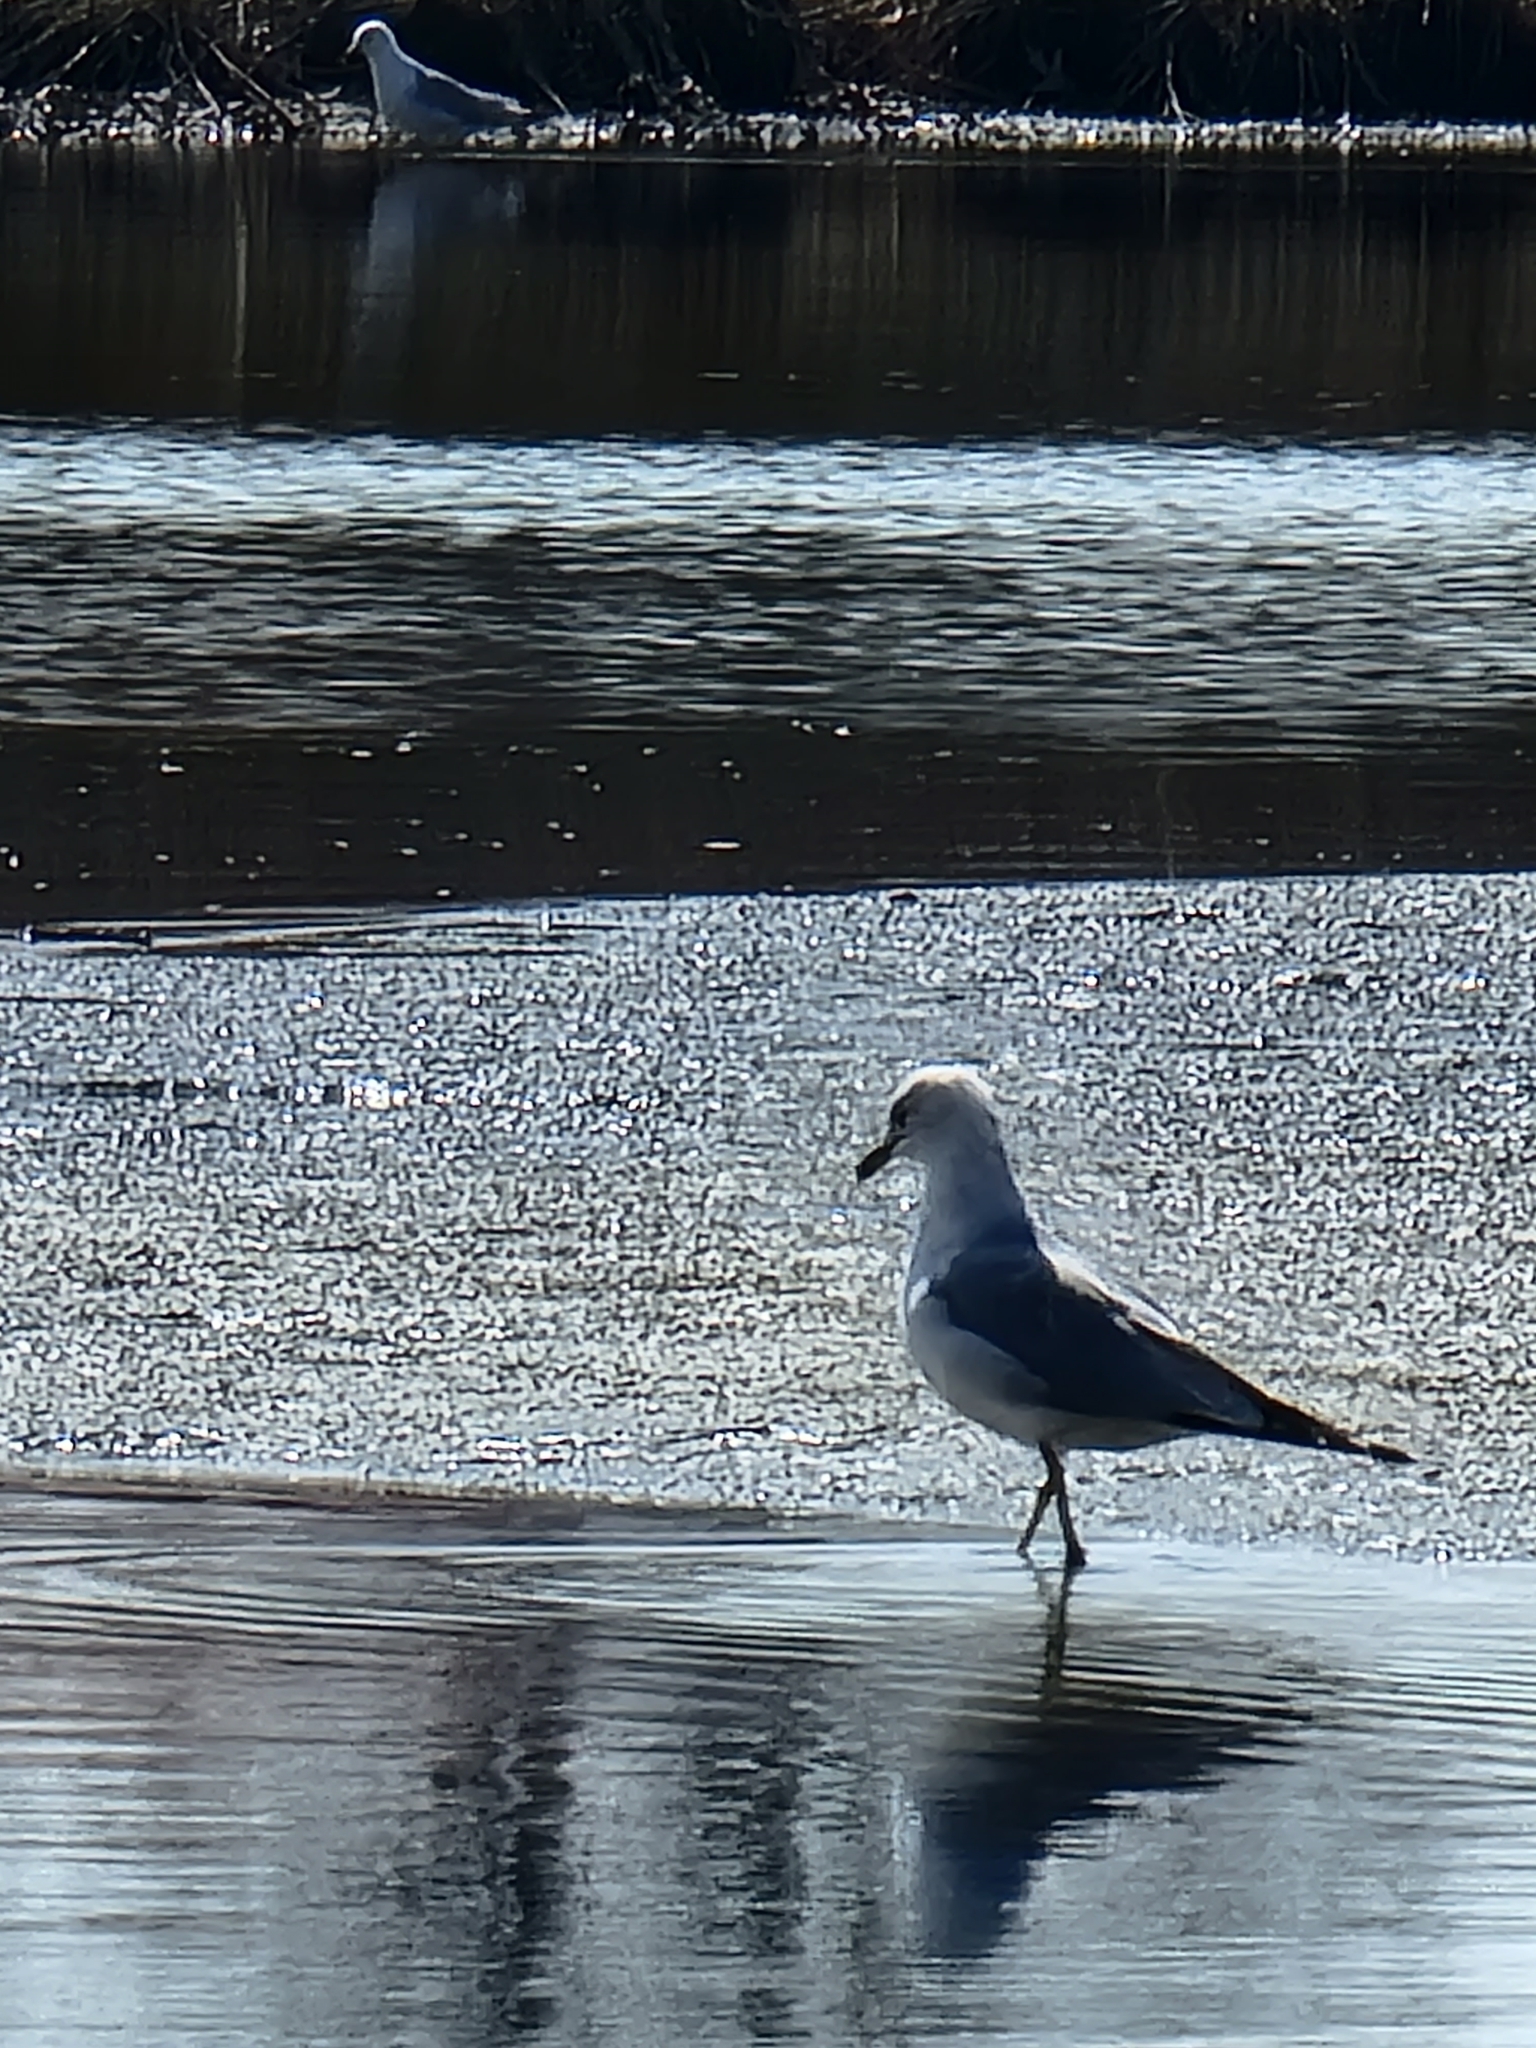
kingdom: Animalia
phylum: Chordata
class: Aves
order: Charadriiformes
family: Laridae
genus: Larus
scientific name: Larus delawarensis
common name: Ring-billed gull
